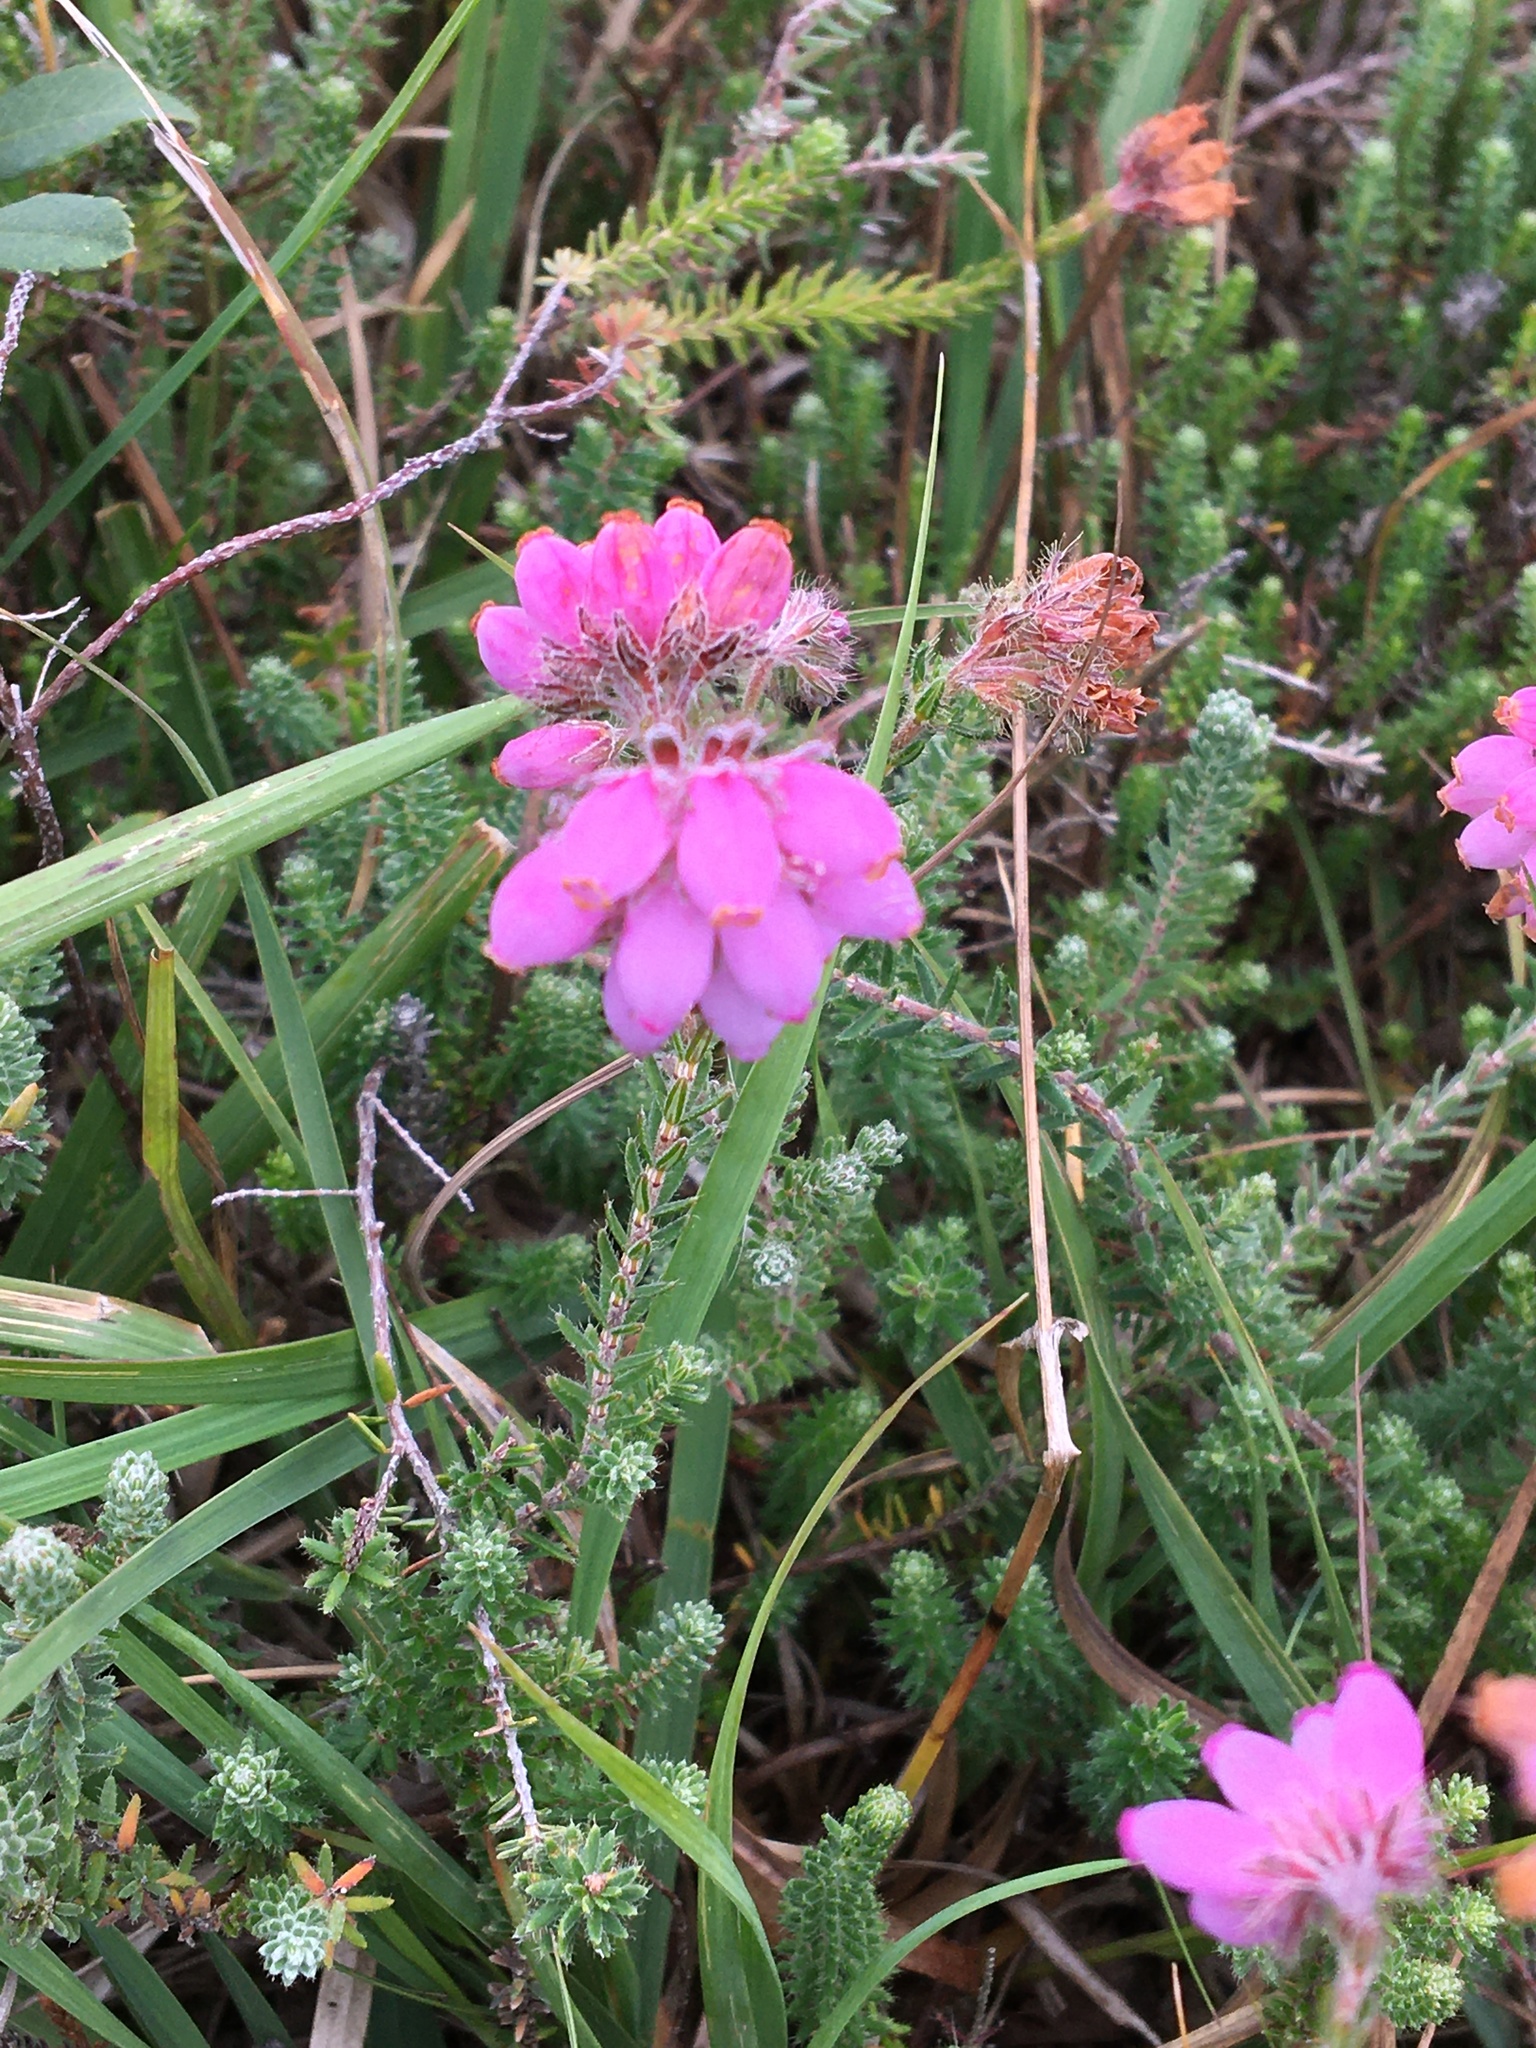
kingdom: Plantae
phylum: Tracheophyta
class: Magnoliopsida
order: Ericales
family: Ericaceae
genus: Erica
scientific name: Erica tetralix
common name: Cross-leaved heath
